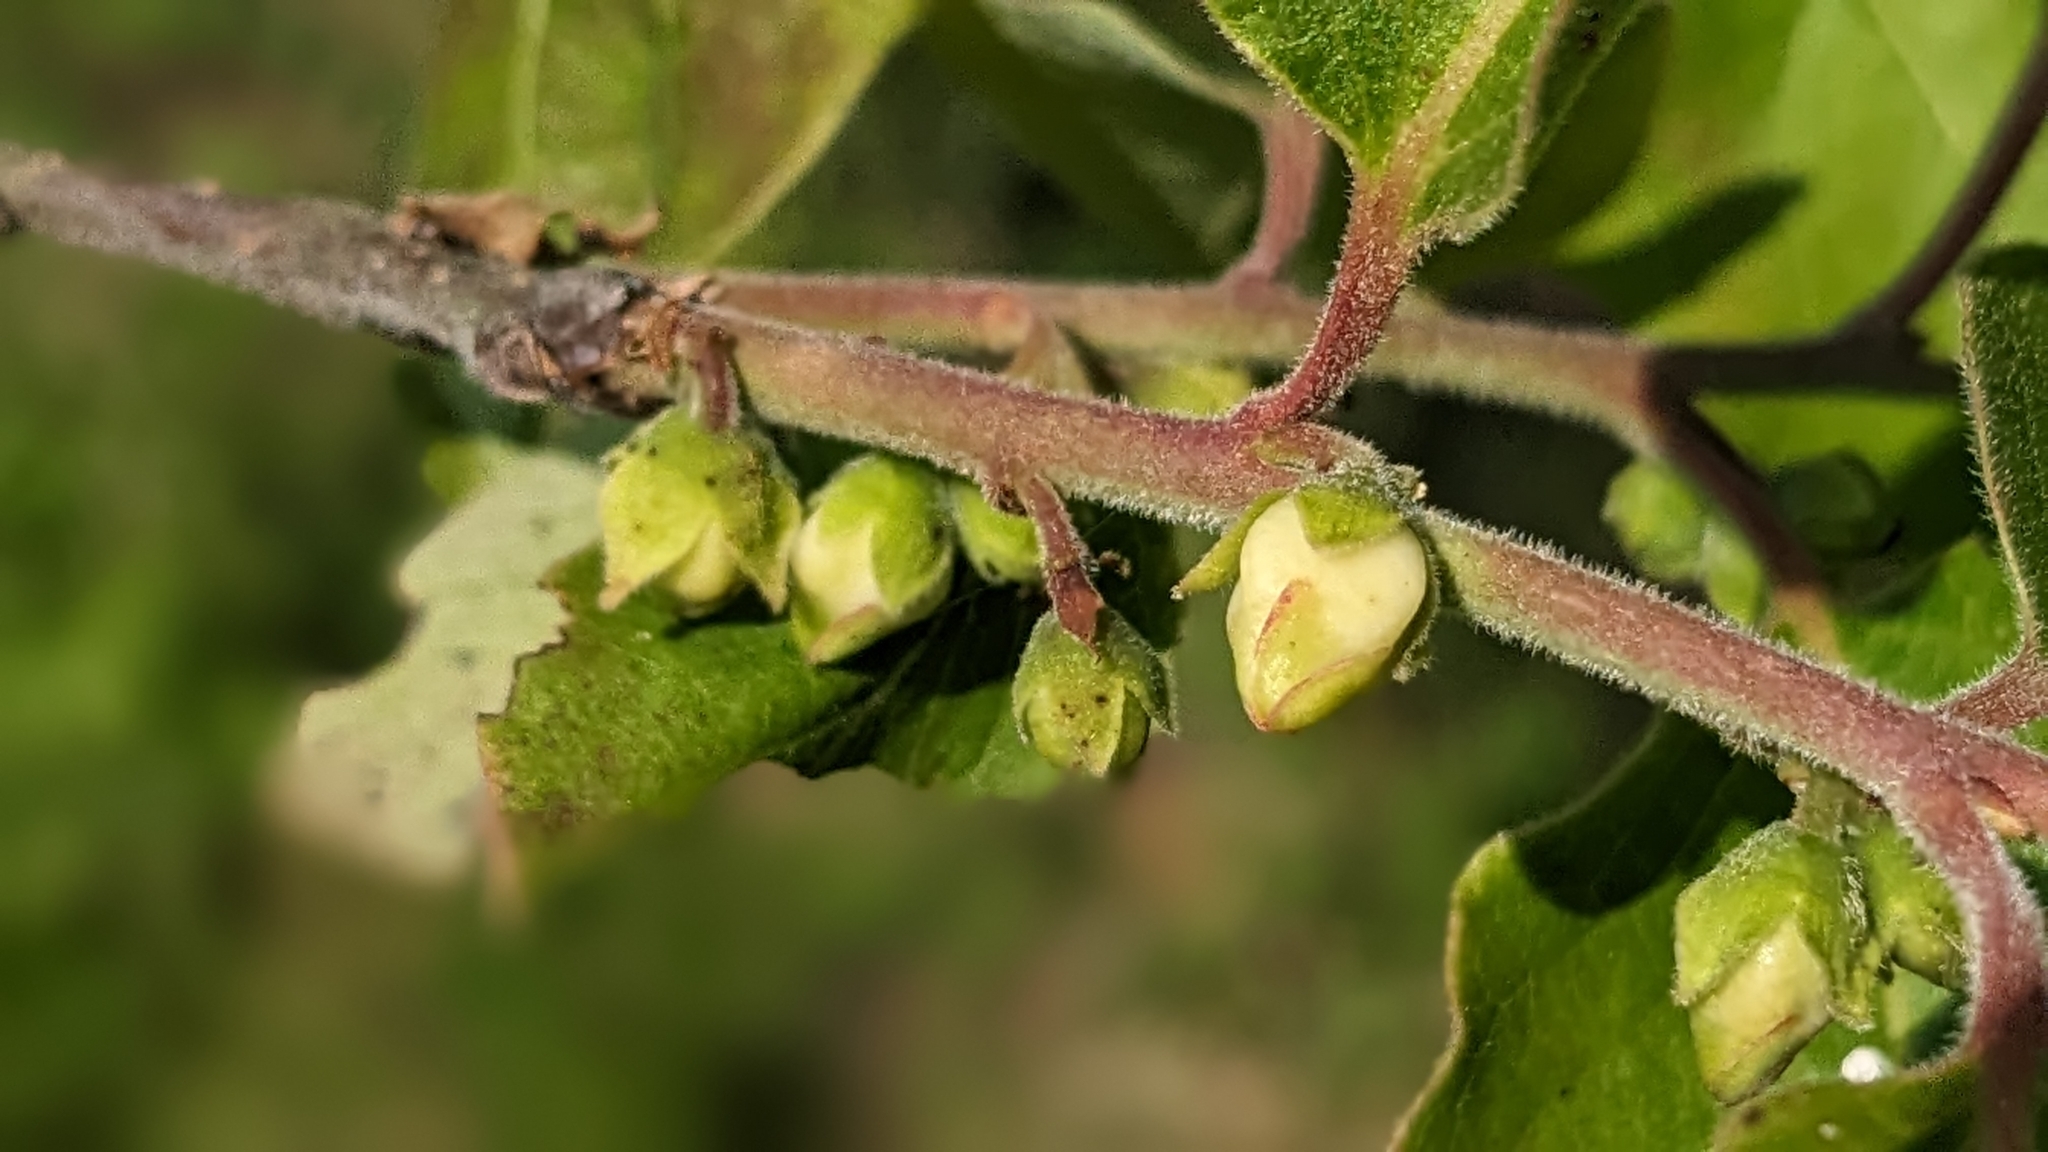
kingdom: Plantae
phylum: Tracheophyta
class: Magnoliopsida
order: Ericales
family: Ebenaceae
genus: Diospyros
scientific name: Diospyros virginiana
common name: Persimmon
